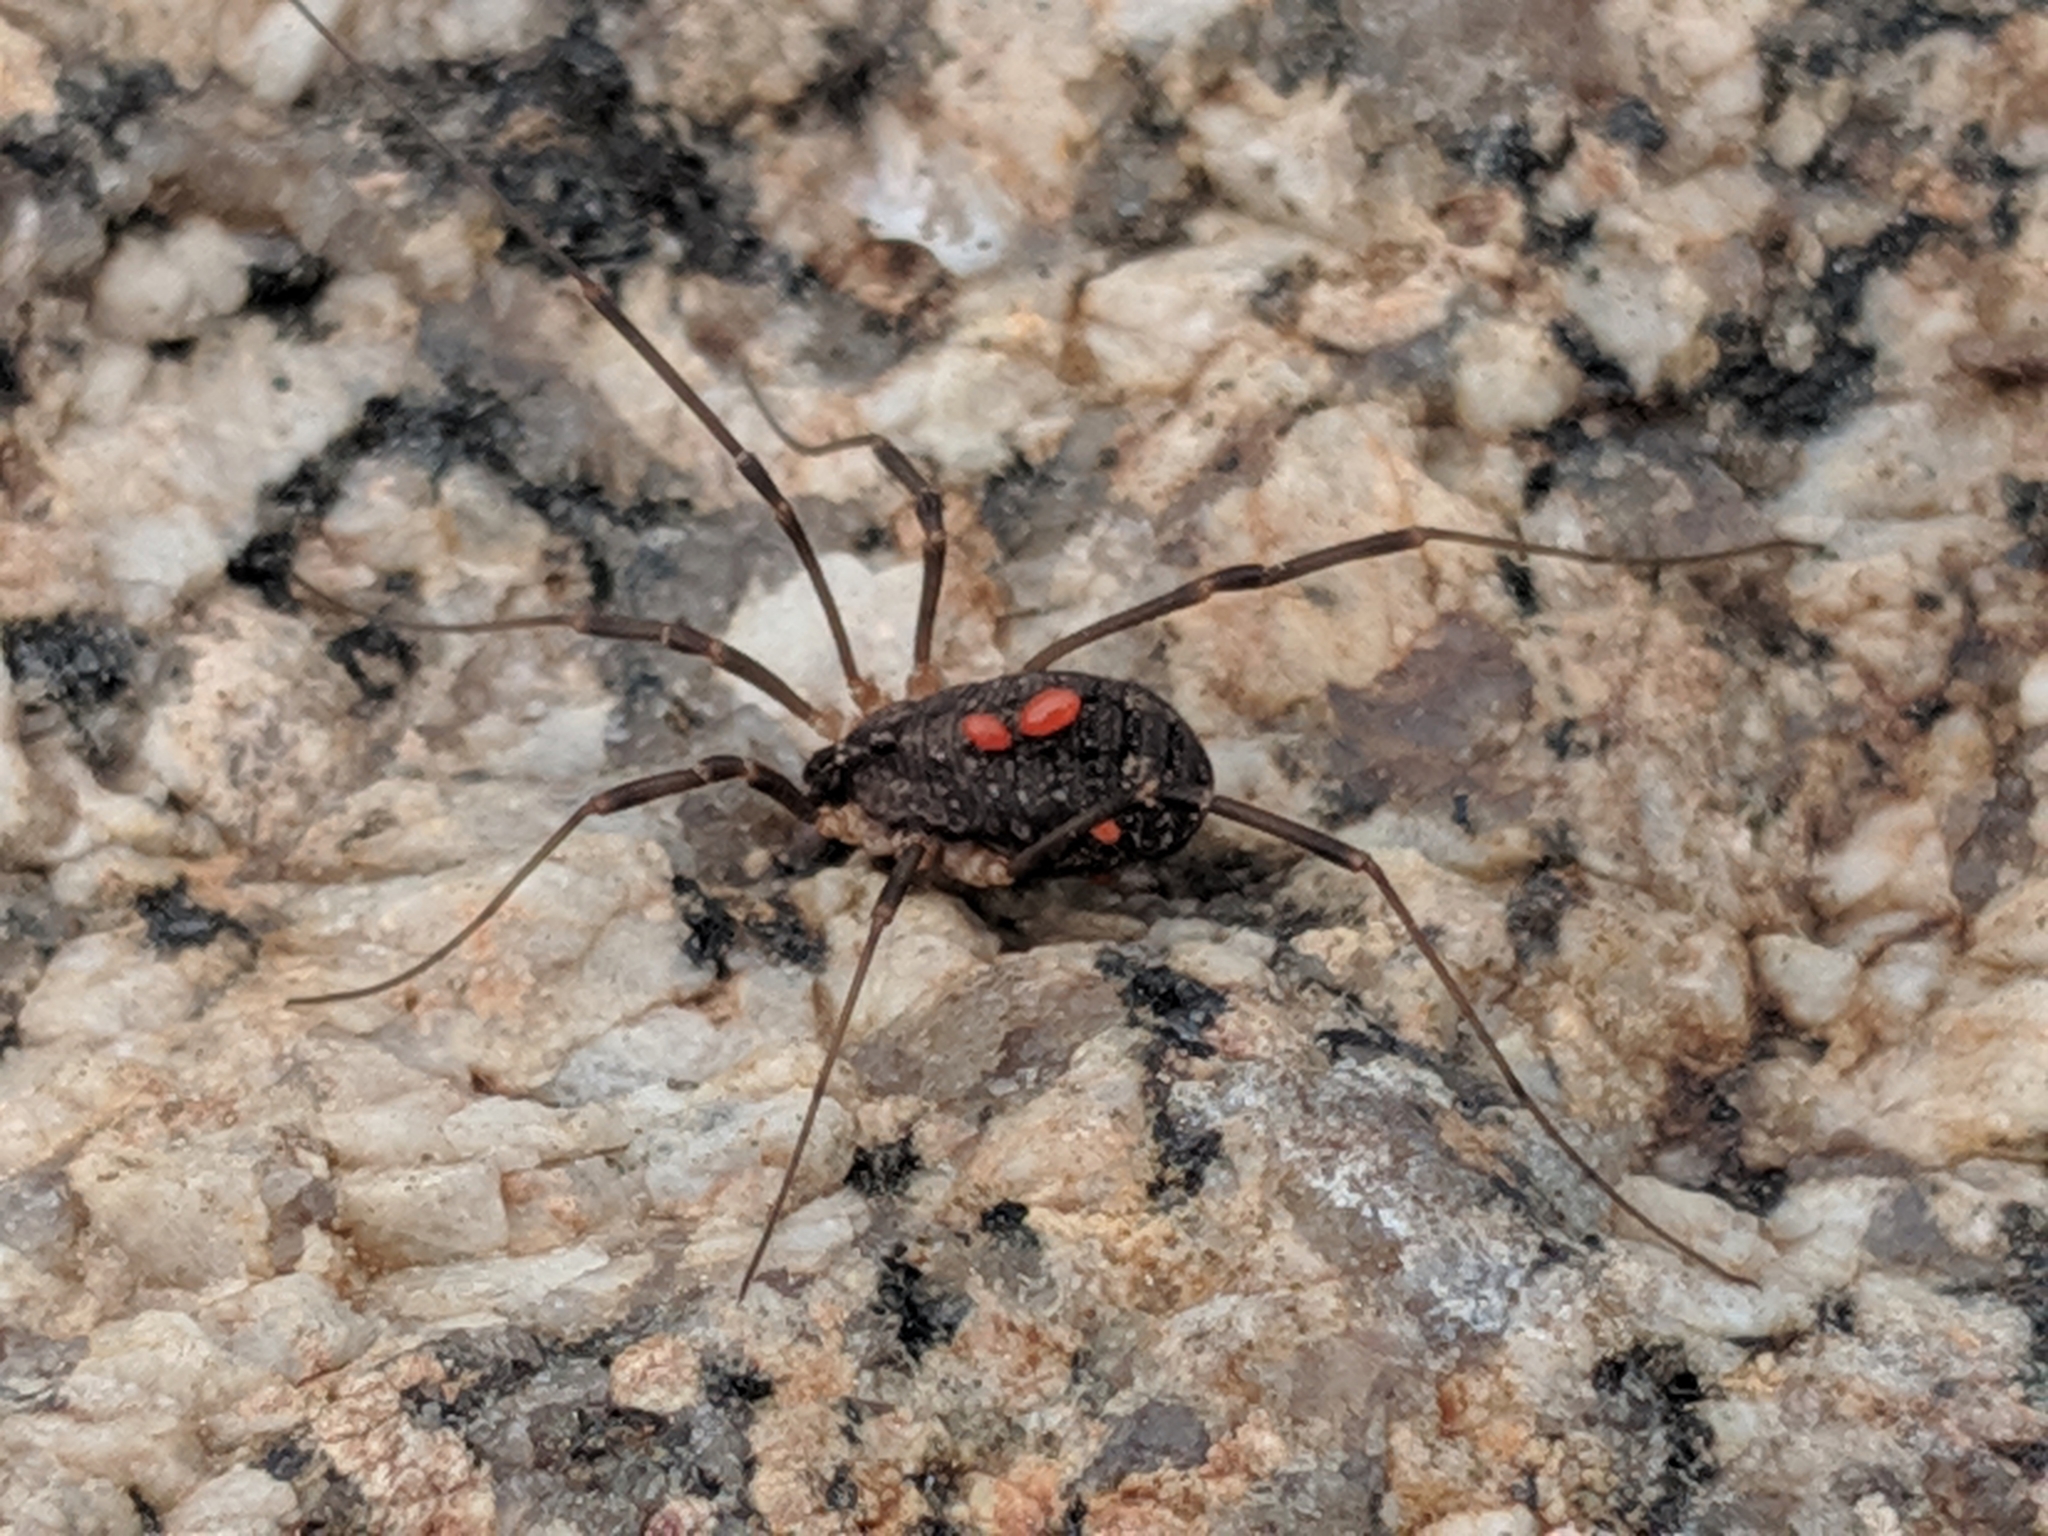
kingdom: Animalia
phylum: Arthropoda
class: Arachnida
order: Opiliones
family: Sclerosomatidae
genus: Togwoteeus
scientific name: Togwoteeus biceps
